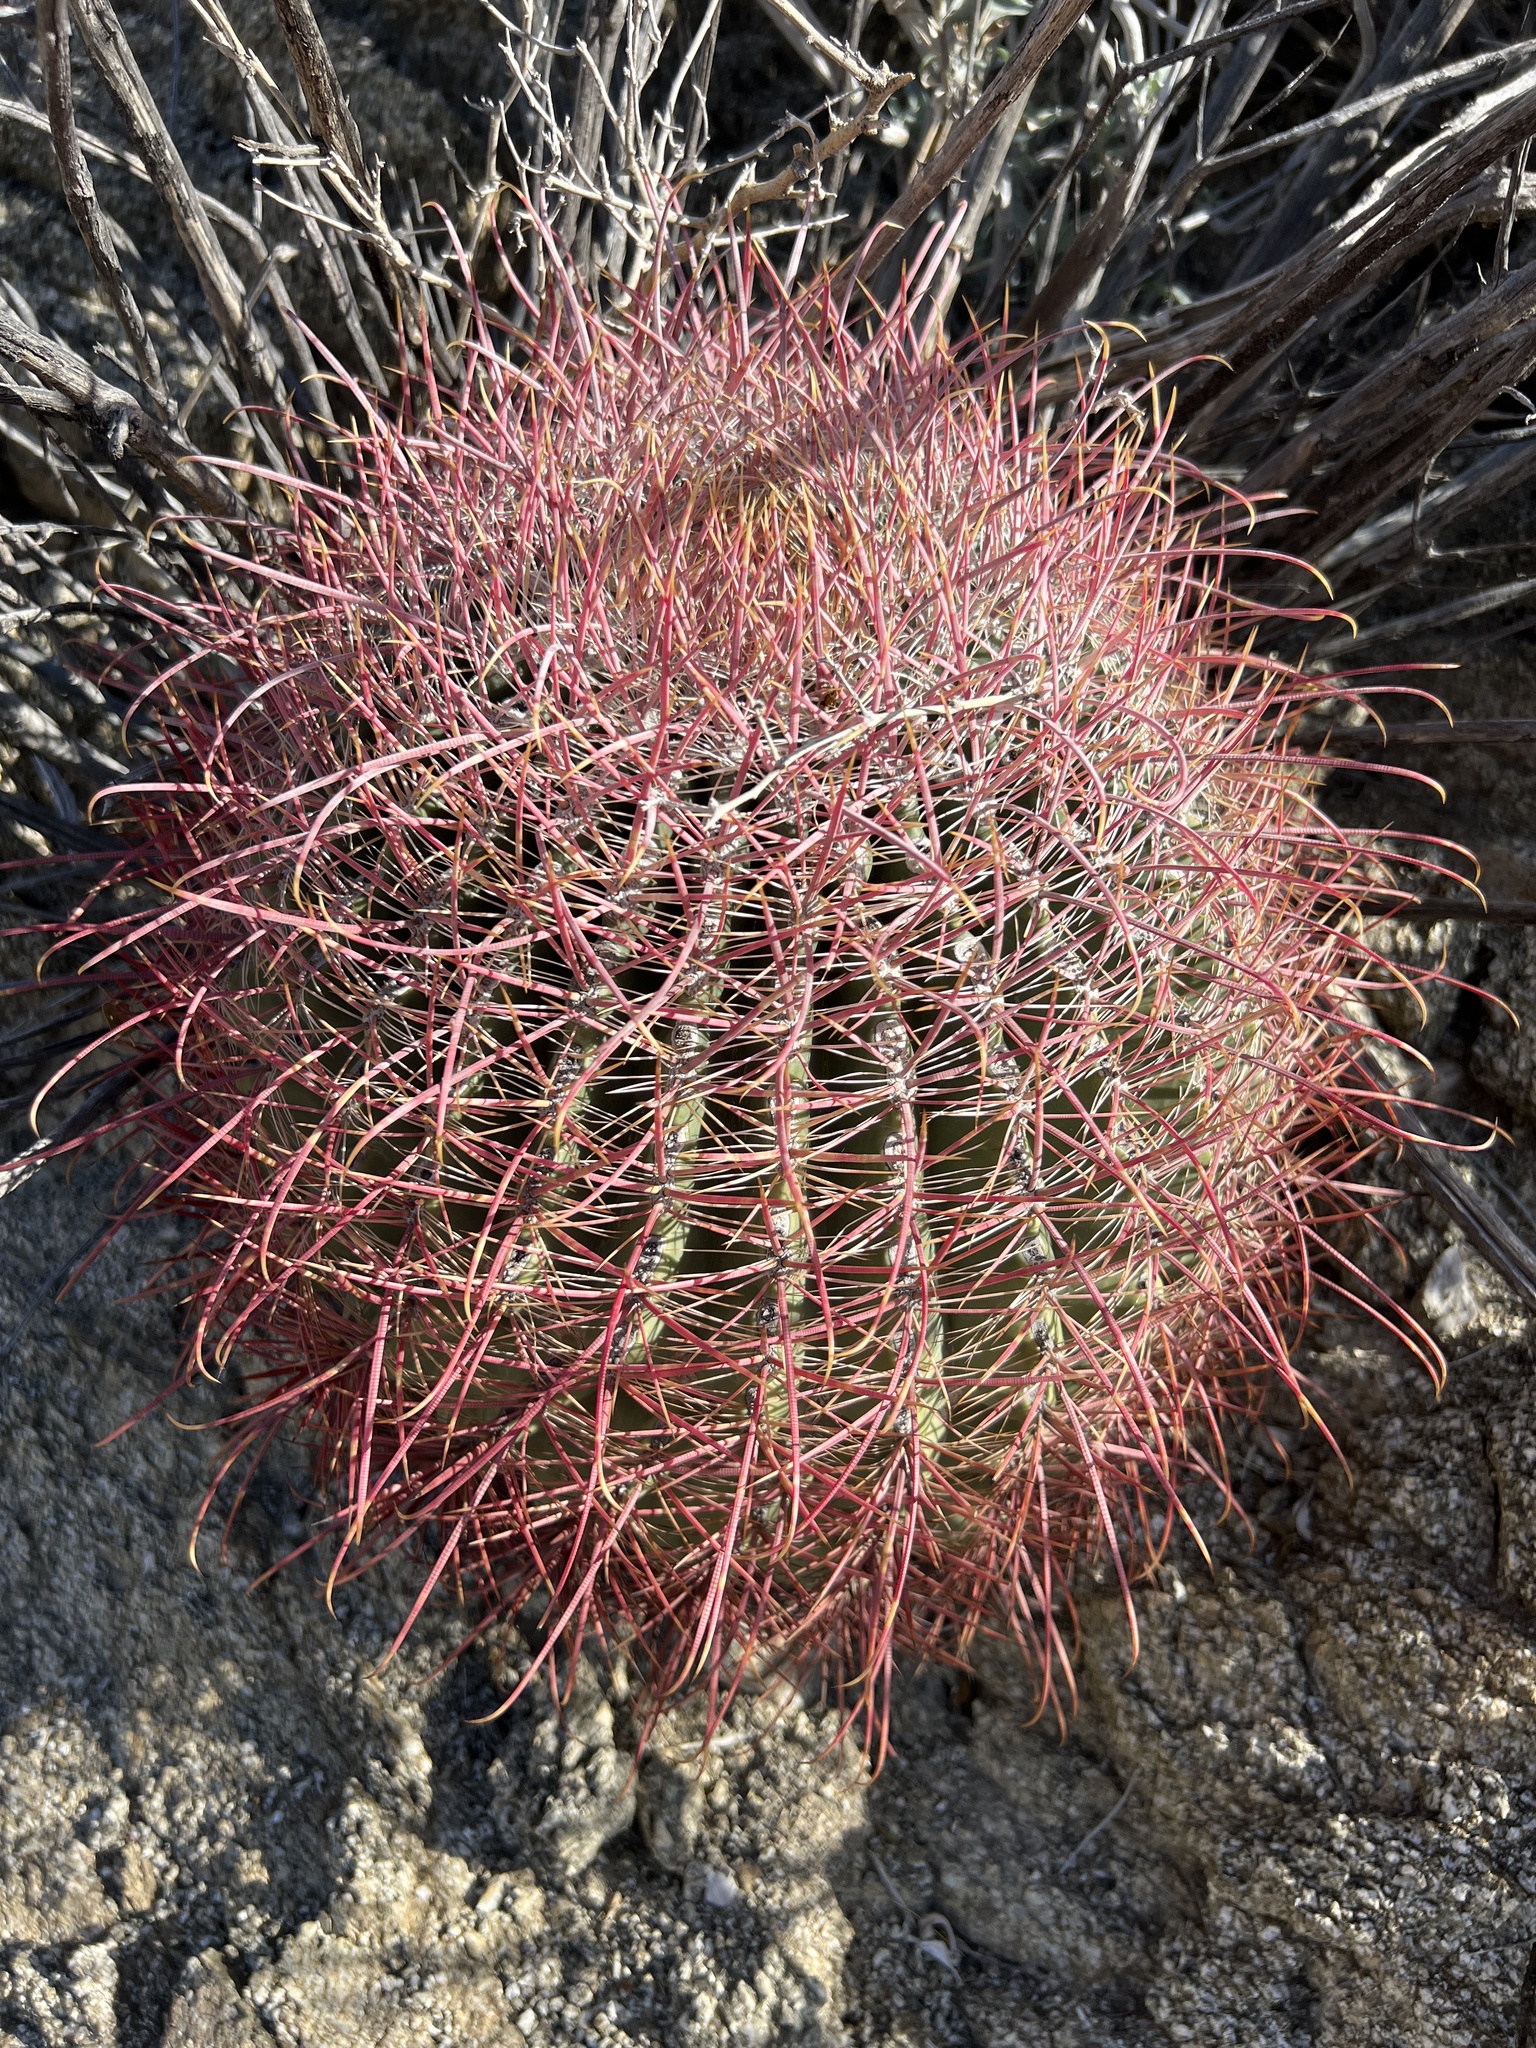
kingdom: Plantae
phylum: Tracheophyta
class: Magnoliopsida
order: Caryophyllales
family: Cactaceae
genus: Ferocactus
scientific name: Ferocactus cylindraceus
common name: California barrel cactus
